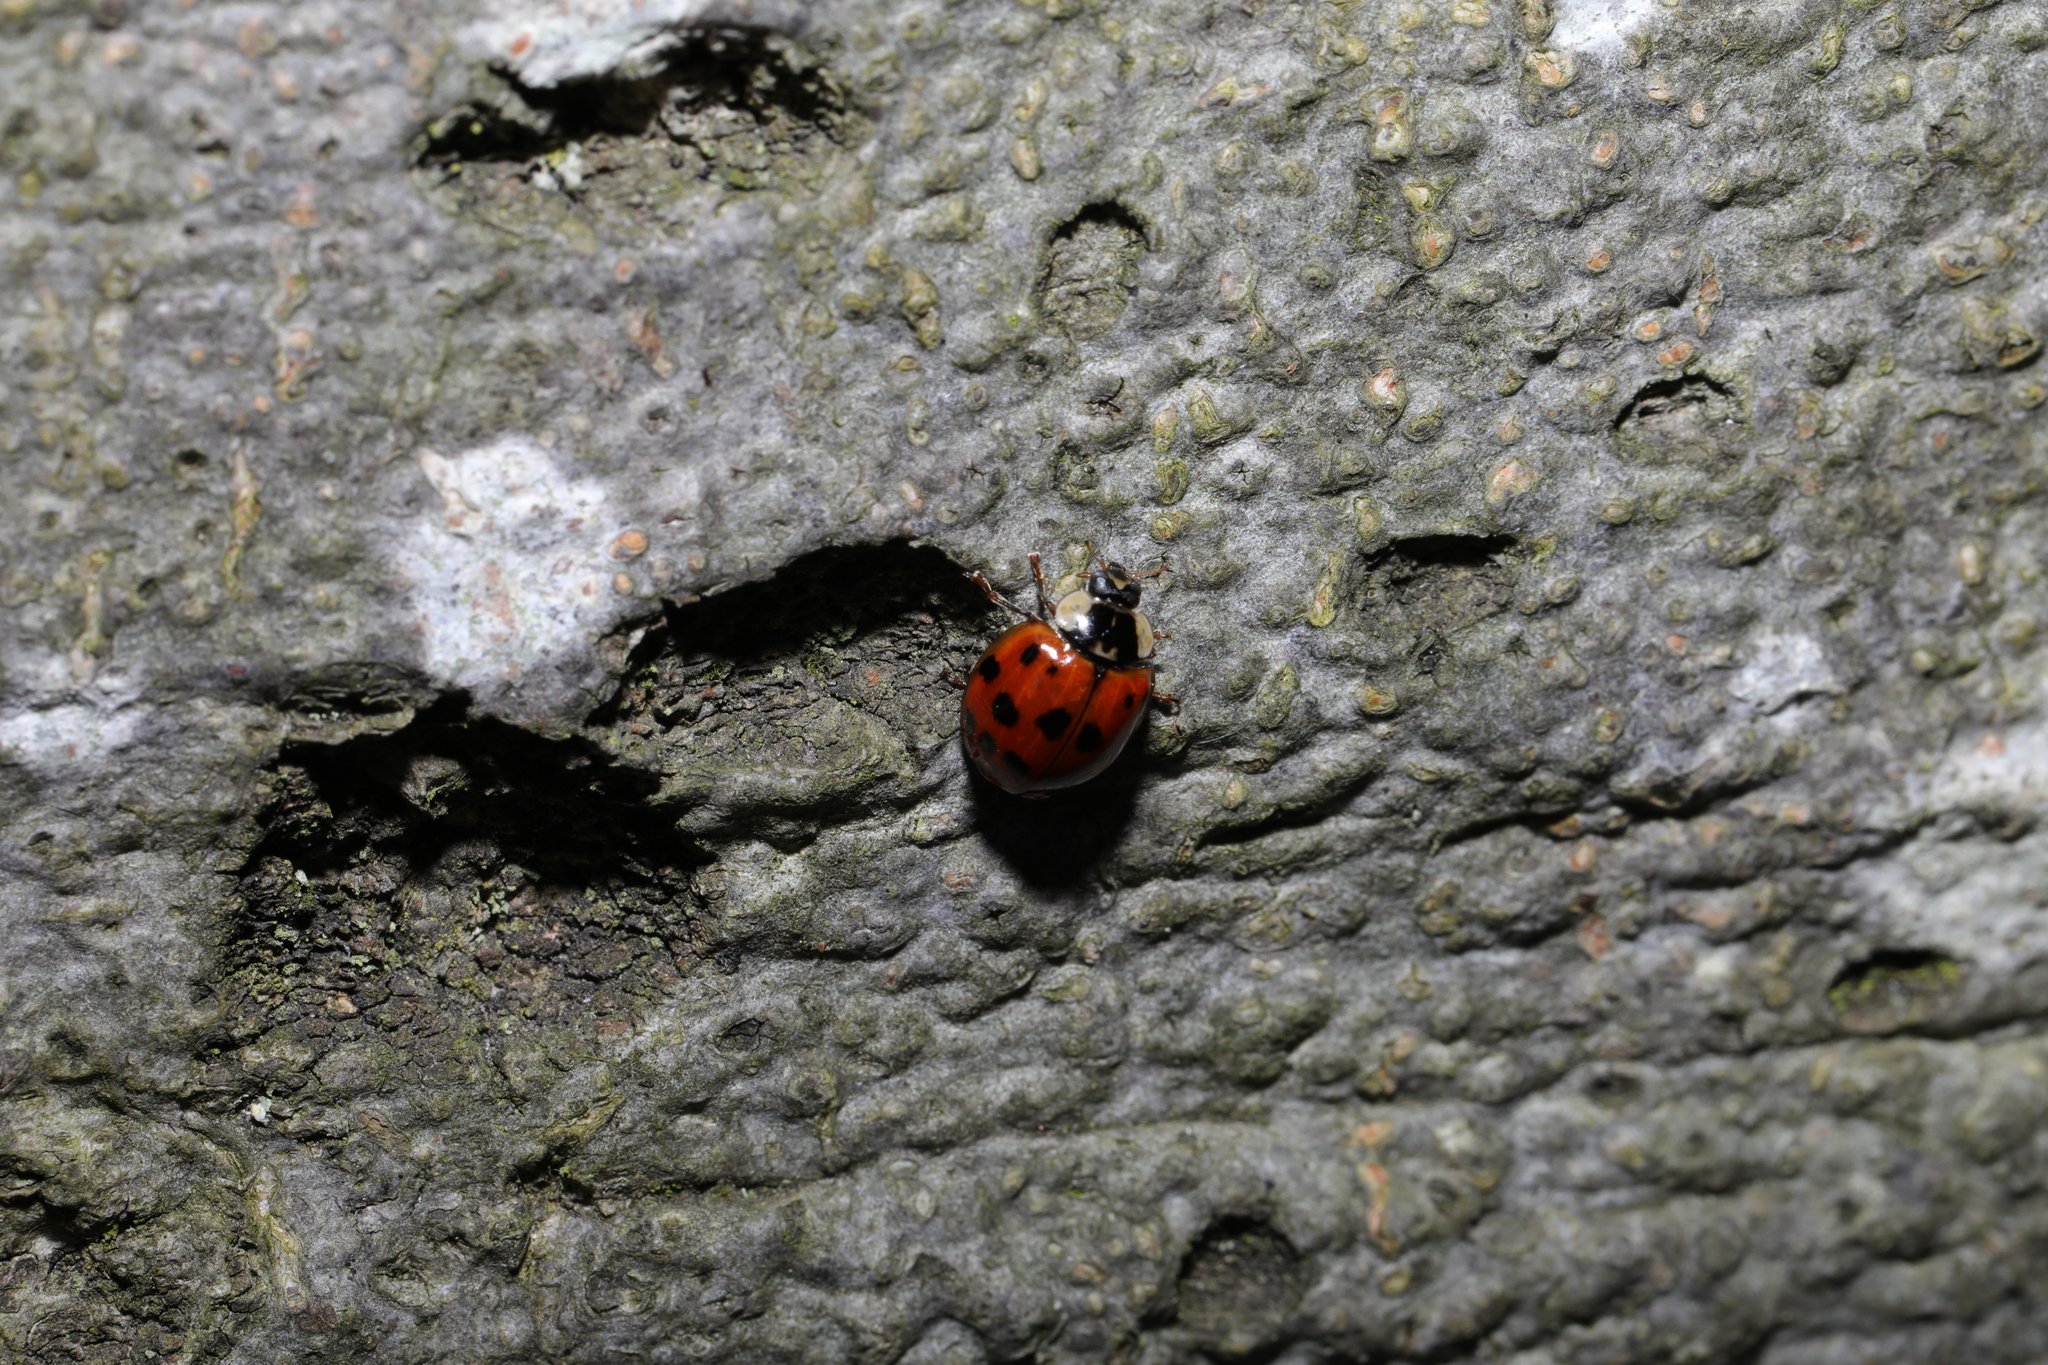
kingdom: Animalia
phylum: Arthropoda
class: Insecta
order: Coleoptera
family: Coccinellidae
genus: Harmonia
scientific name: Harmonia axyridis
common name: Harlequin ladybird
